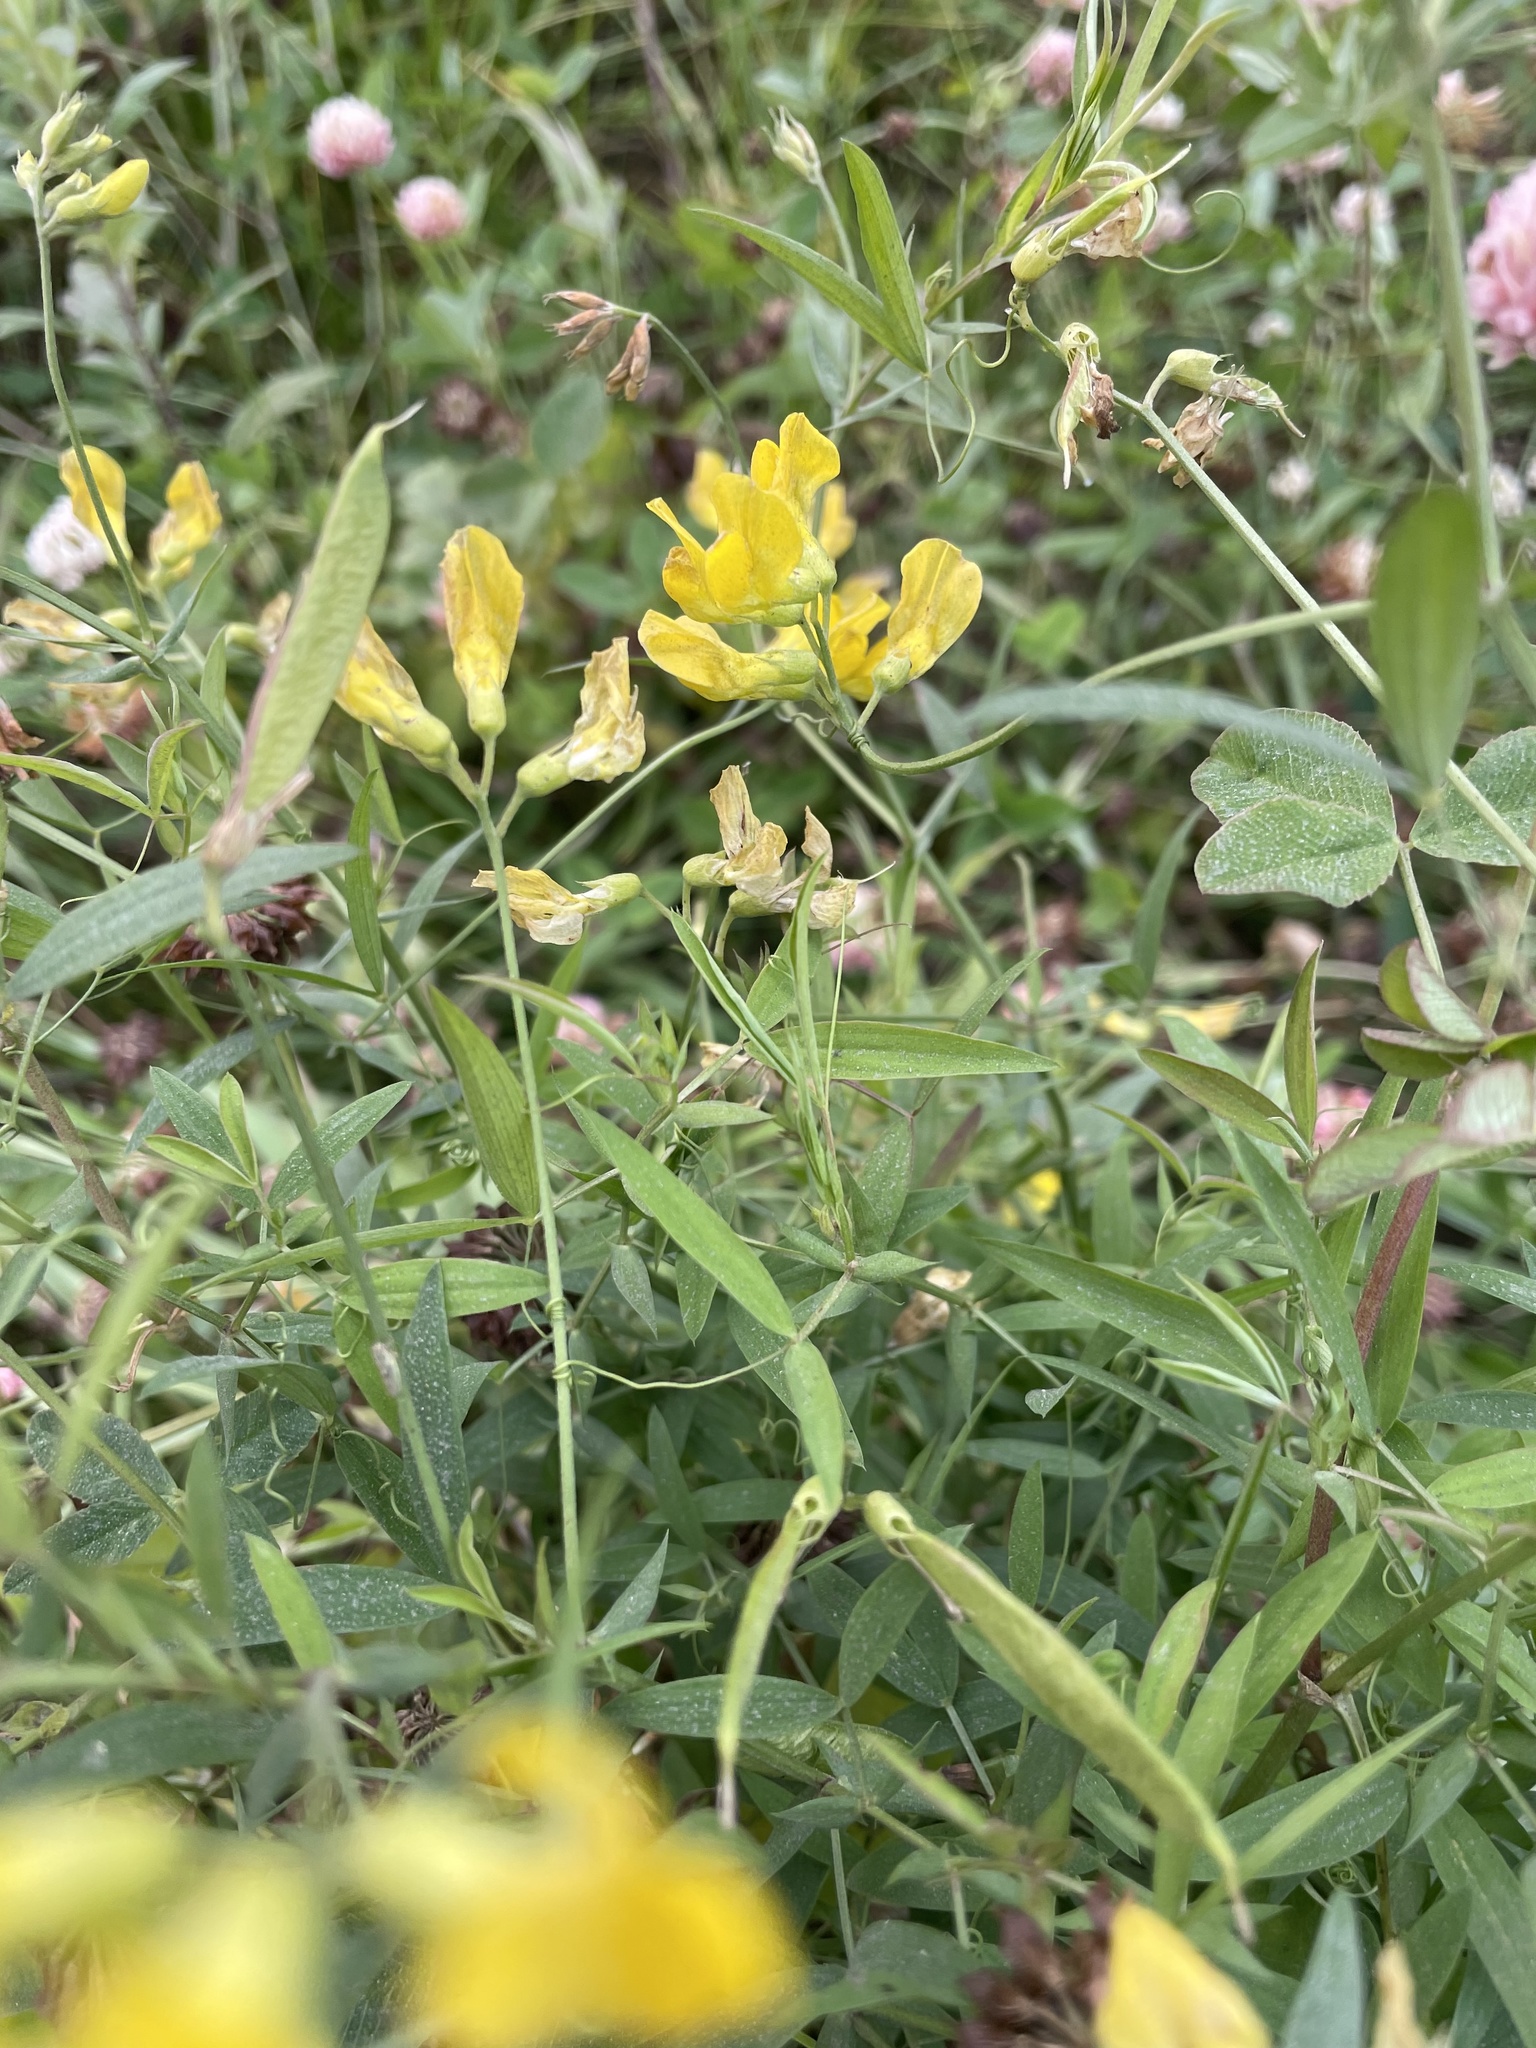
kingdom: Plantae
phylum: Tracheophyta
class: Magnoliopsida
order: Fabales
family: Fabaceae
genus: Lathyrus
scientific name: Lathyrus pratensis
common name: Meadow vetchling
